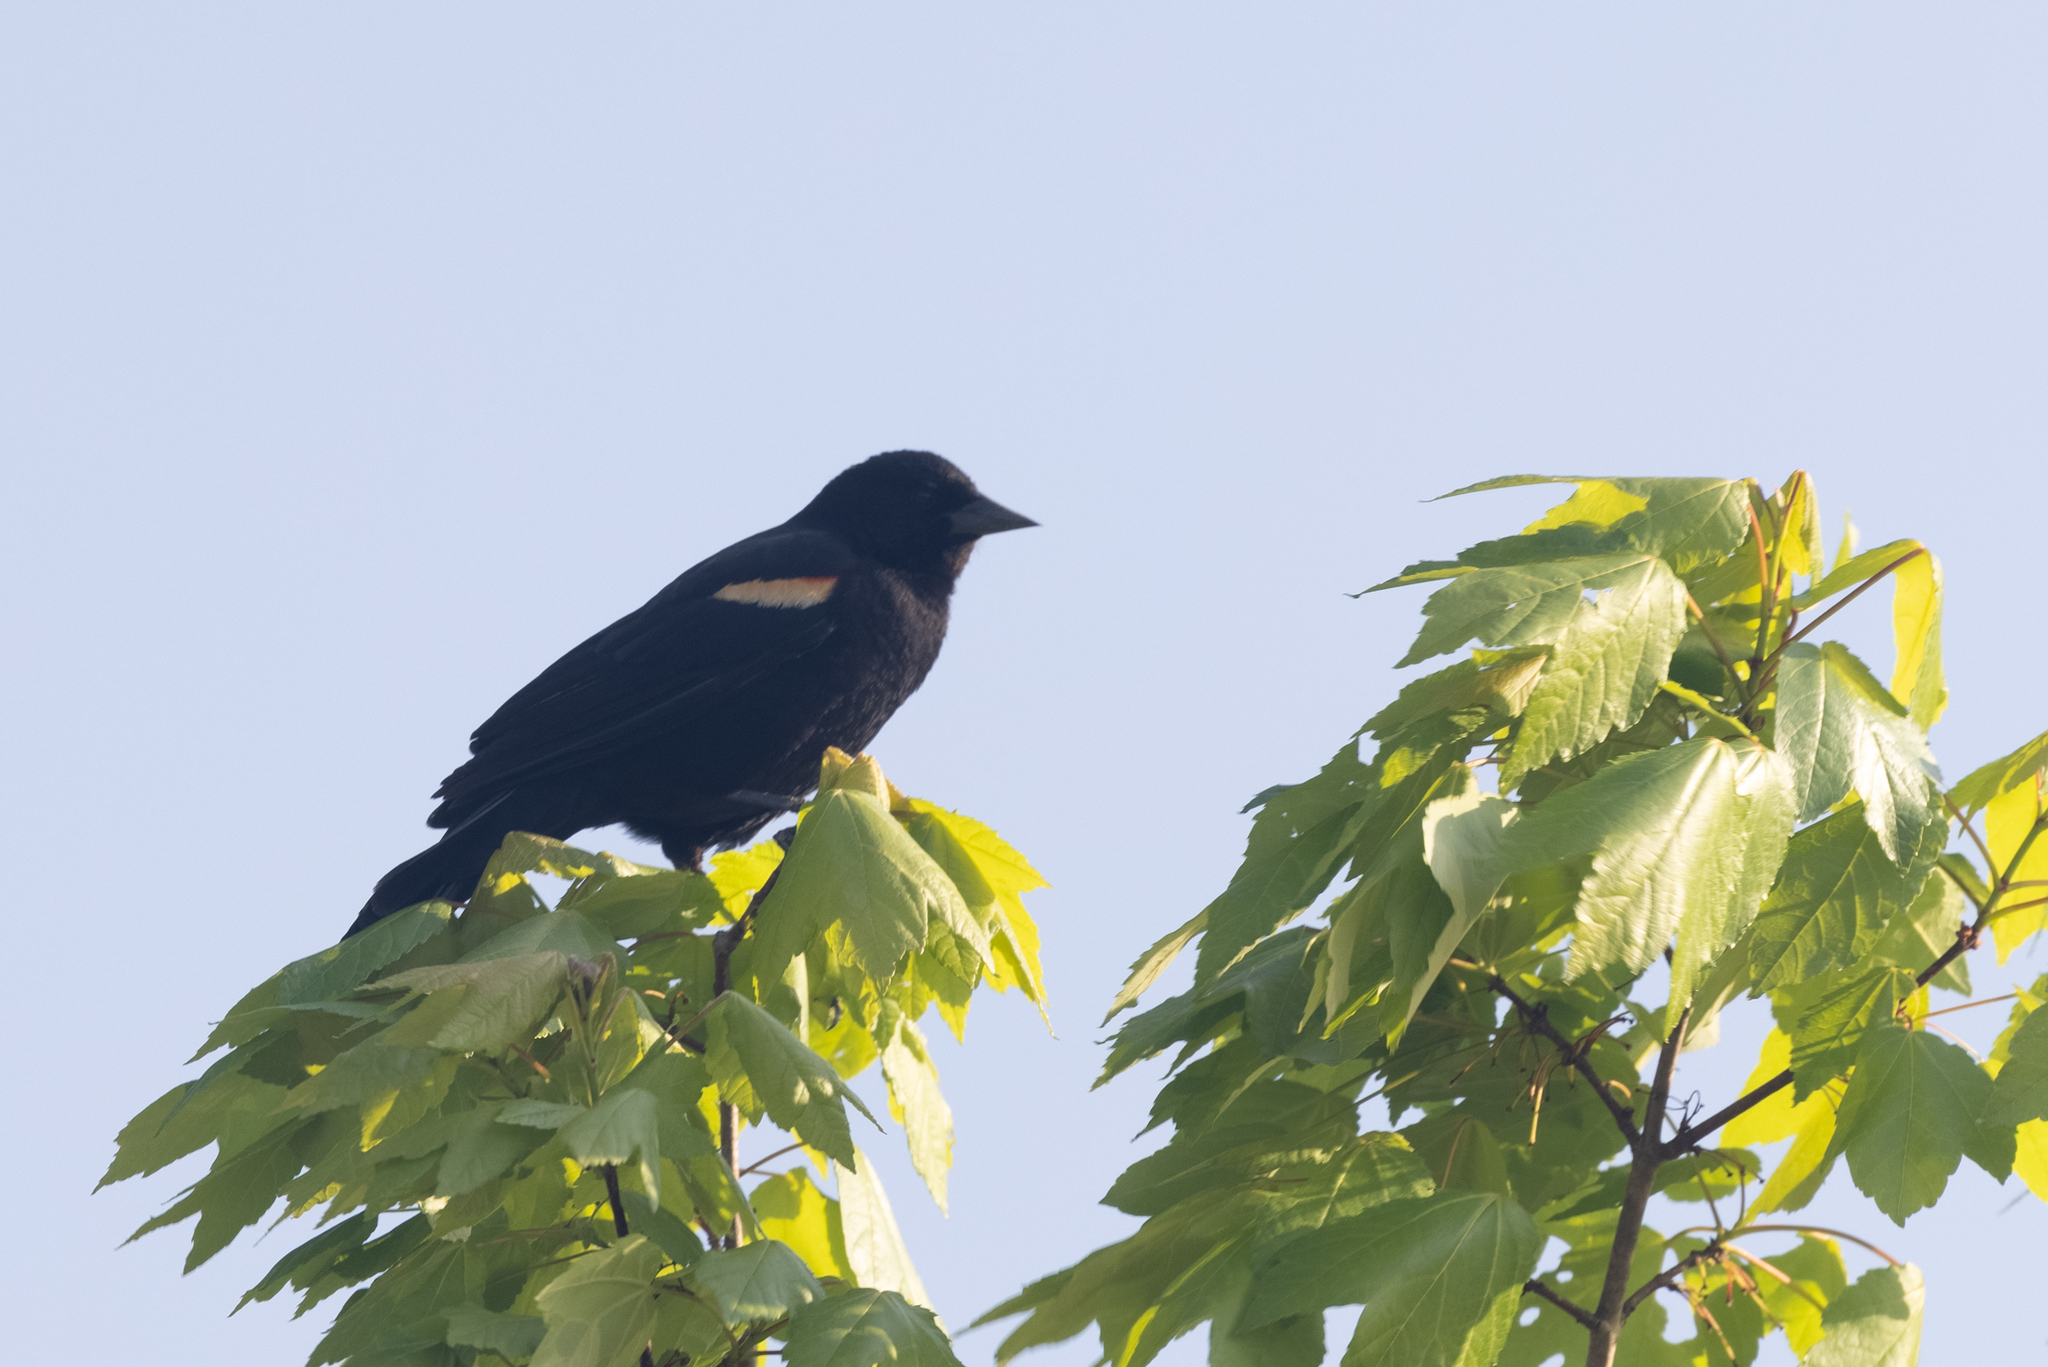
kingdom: Animalia
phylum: Chordata
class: Aves
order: Passeriformes
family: Icteridae
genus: Agelaius
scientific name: Agelaius phoeniceus
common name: Red-winged blackbird
